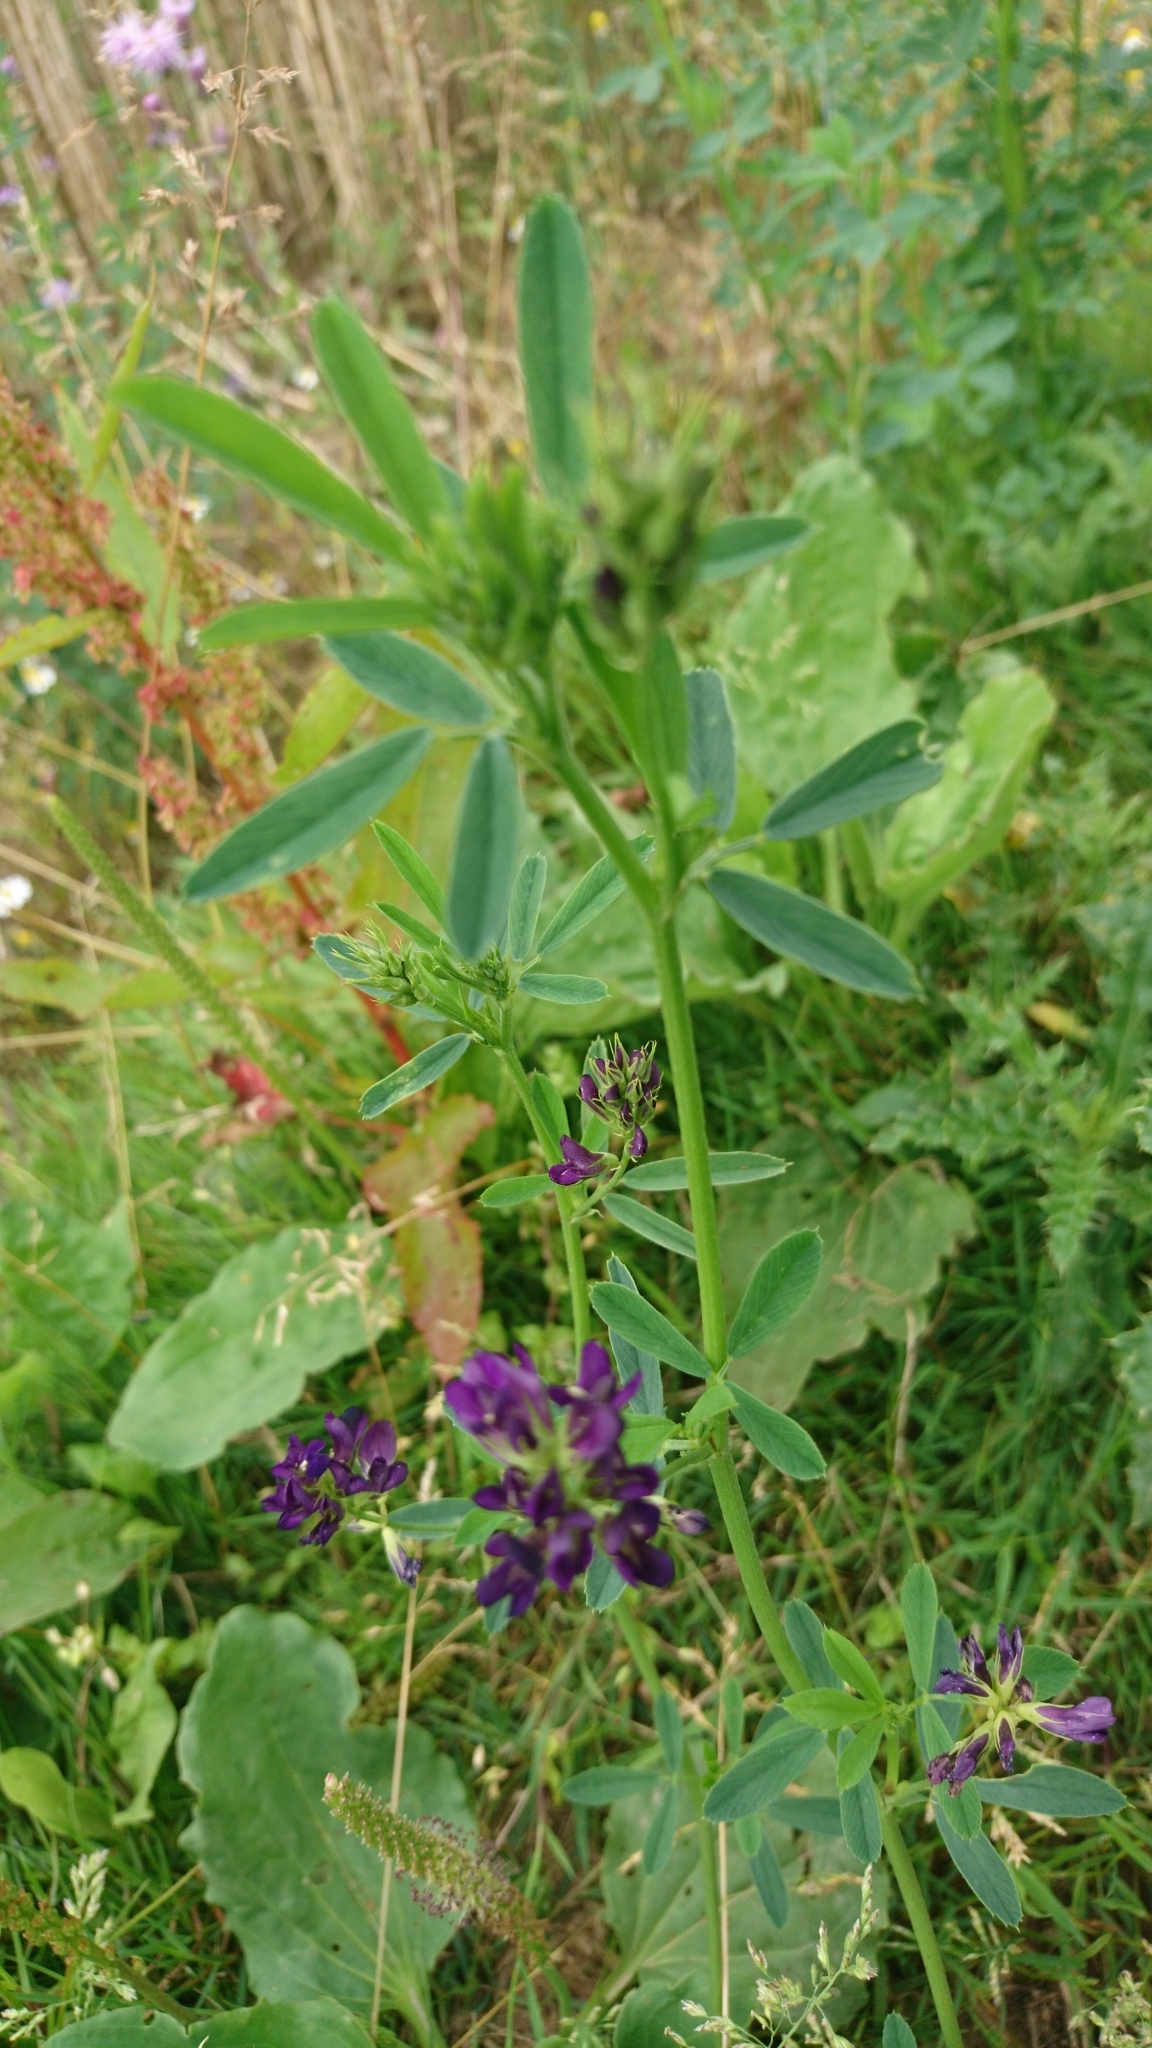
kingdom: Plantae
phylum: Tracheophyta
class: Magnoliopsida
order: Fabales
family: Fabaceae
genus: Medicago
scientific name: Medicago sativa
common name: Alfalfa
